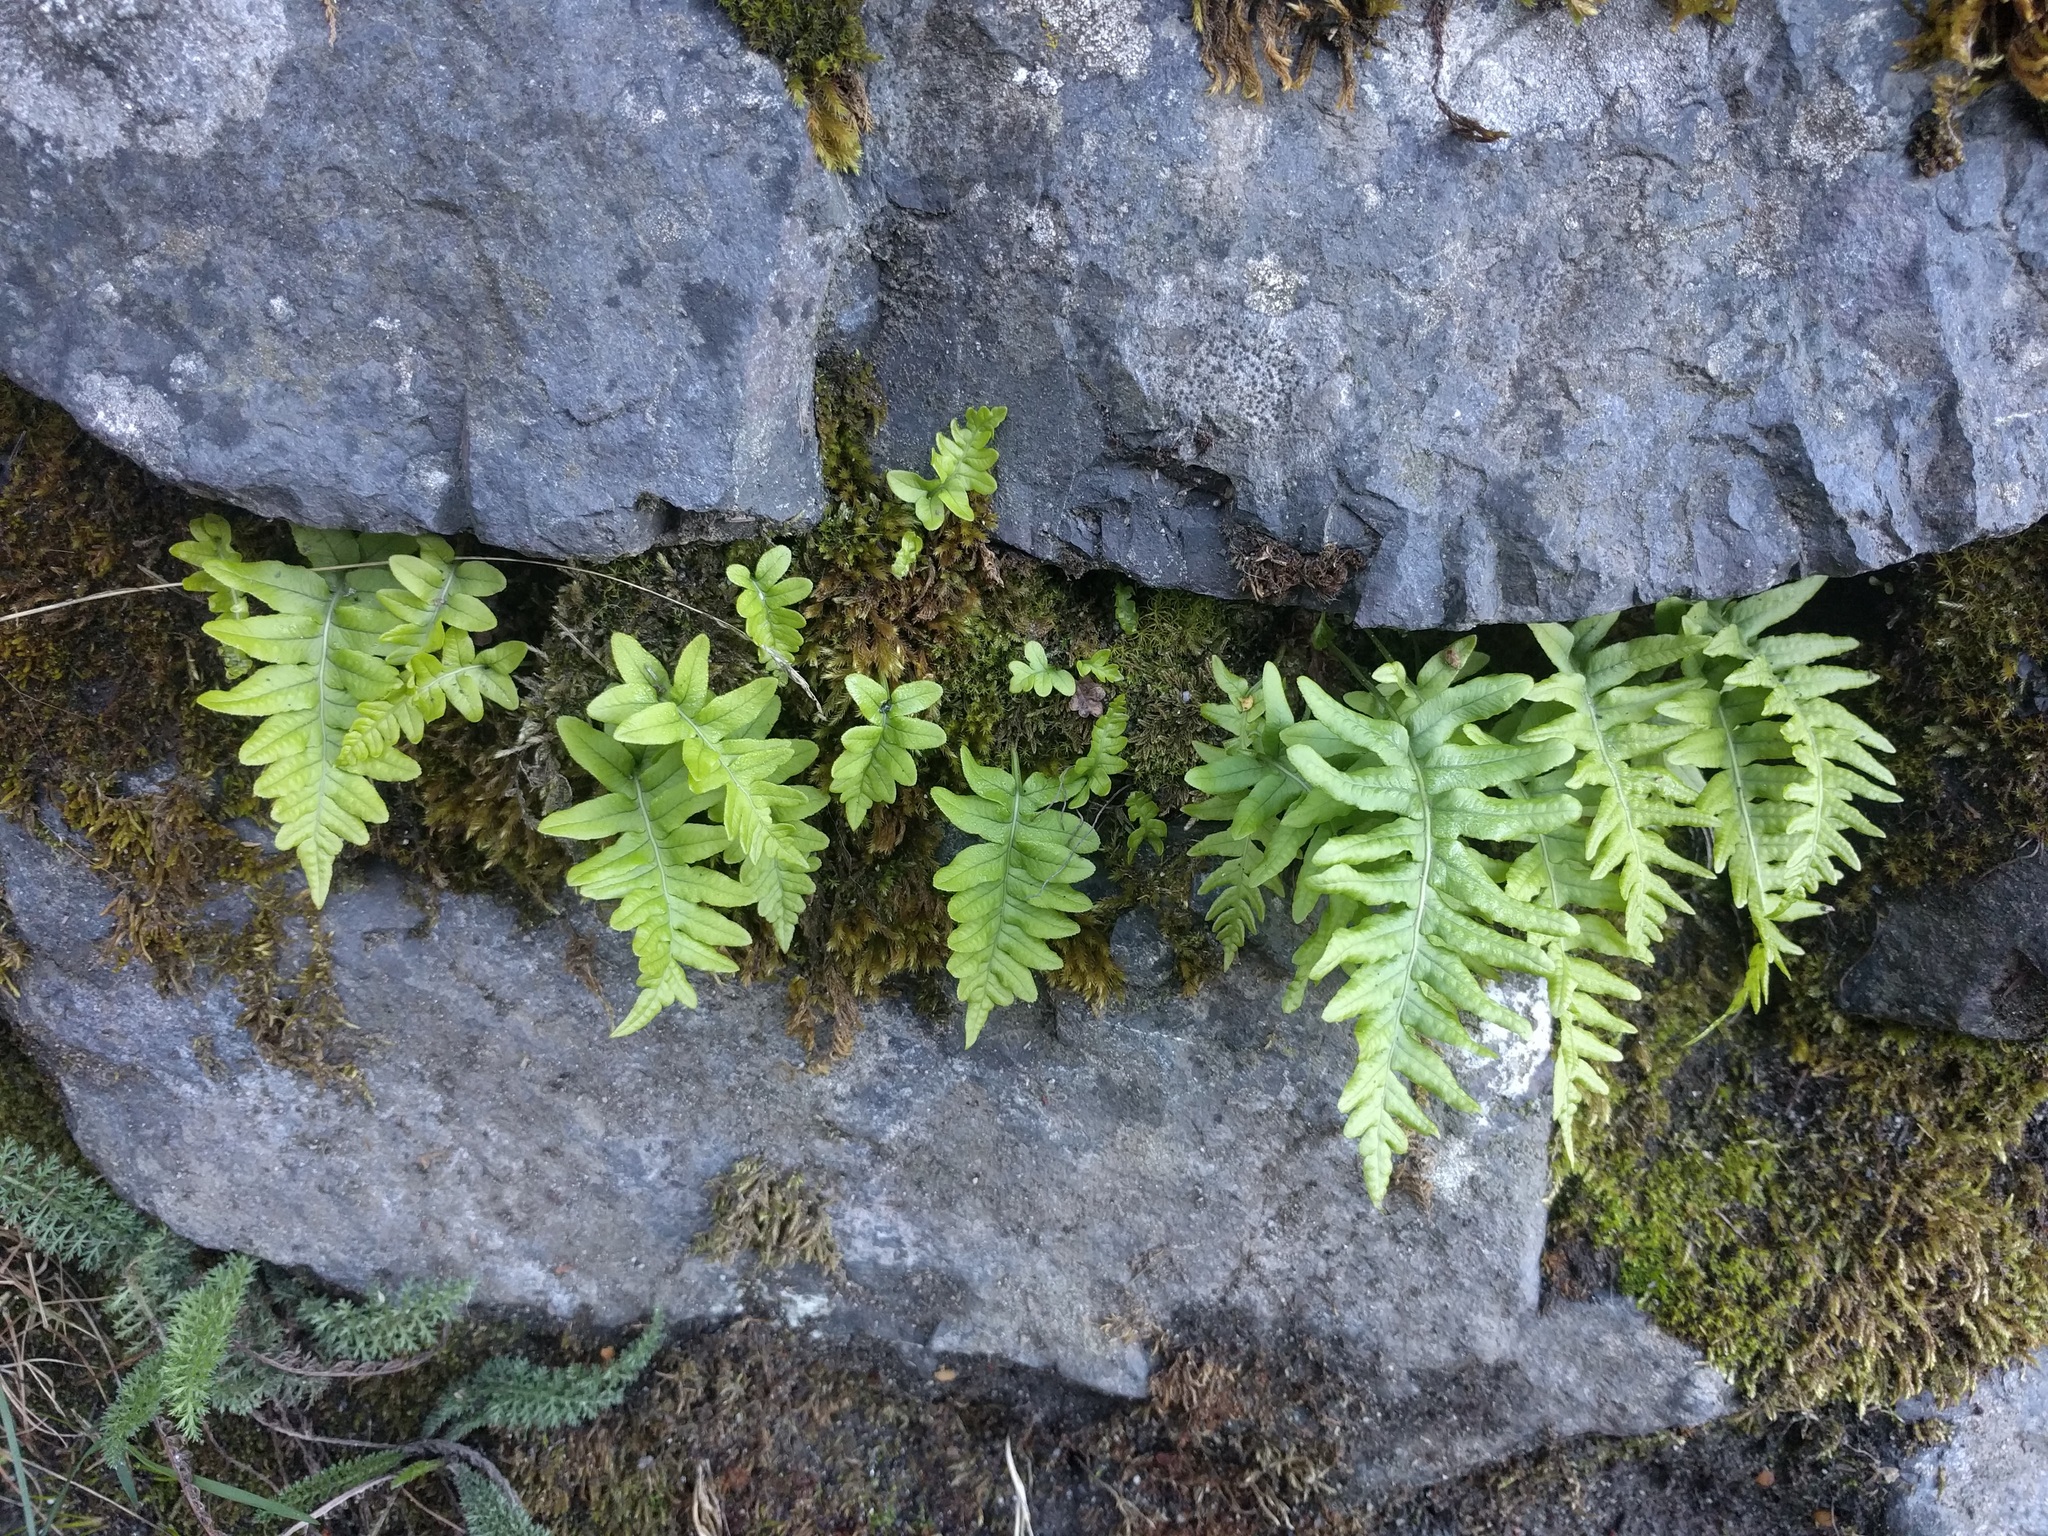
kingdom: Plantae
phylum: Tracheophyta
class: Polypodiopsida
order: Polypodiales
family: Polypodiaceae
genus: Polypodium
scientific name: Polypodium glycyrrhiza
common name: Licorice fern
